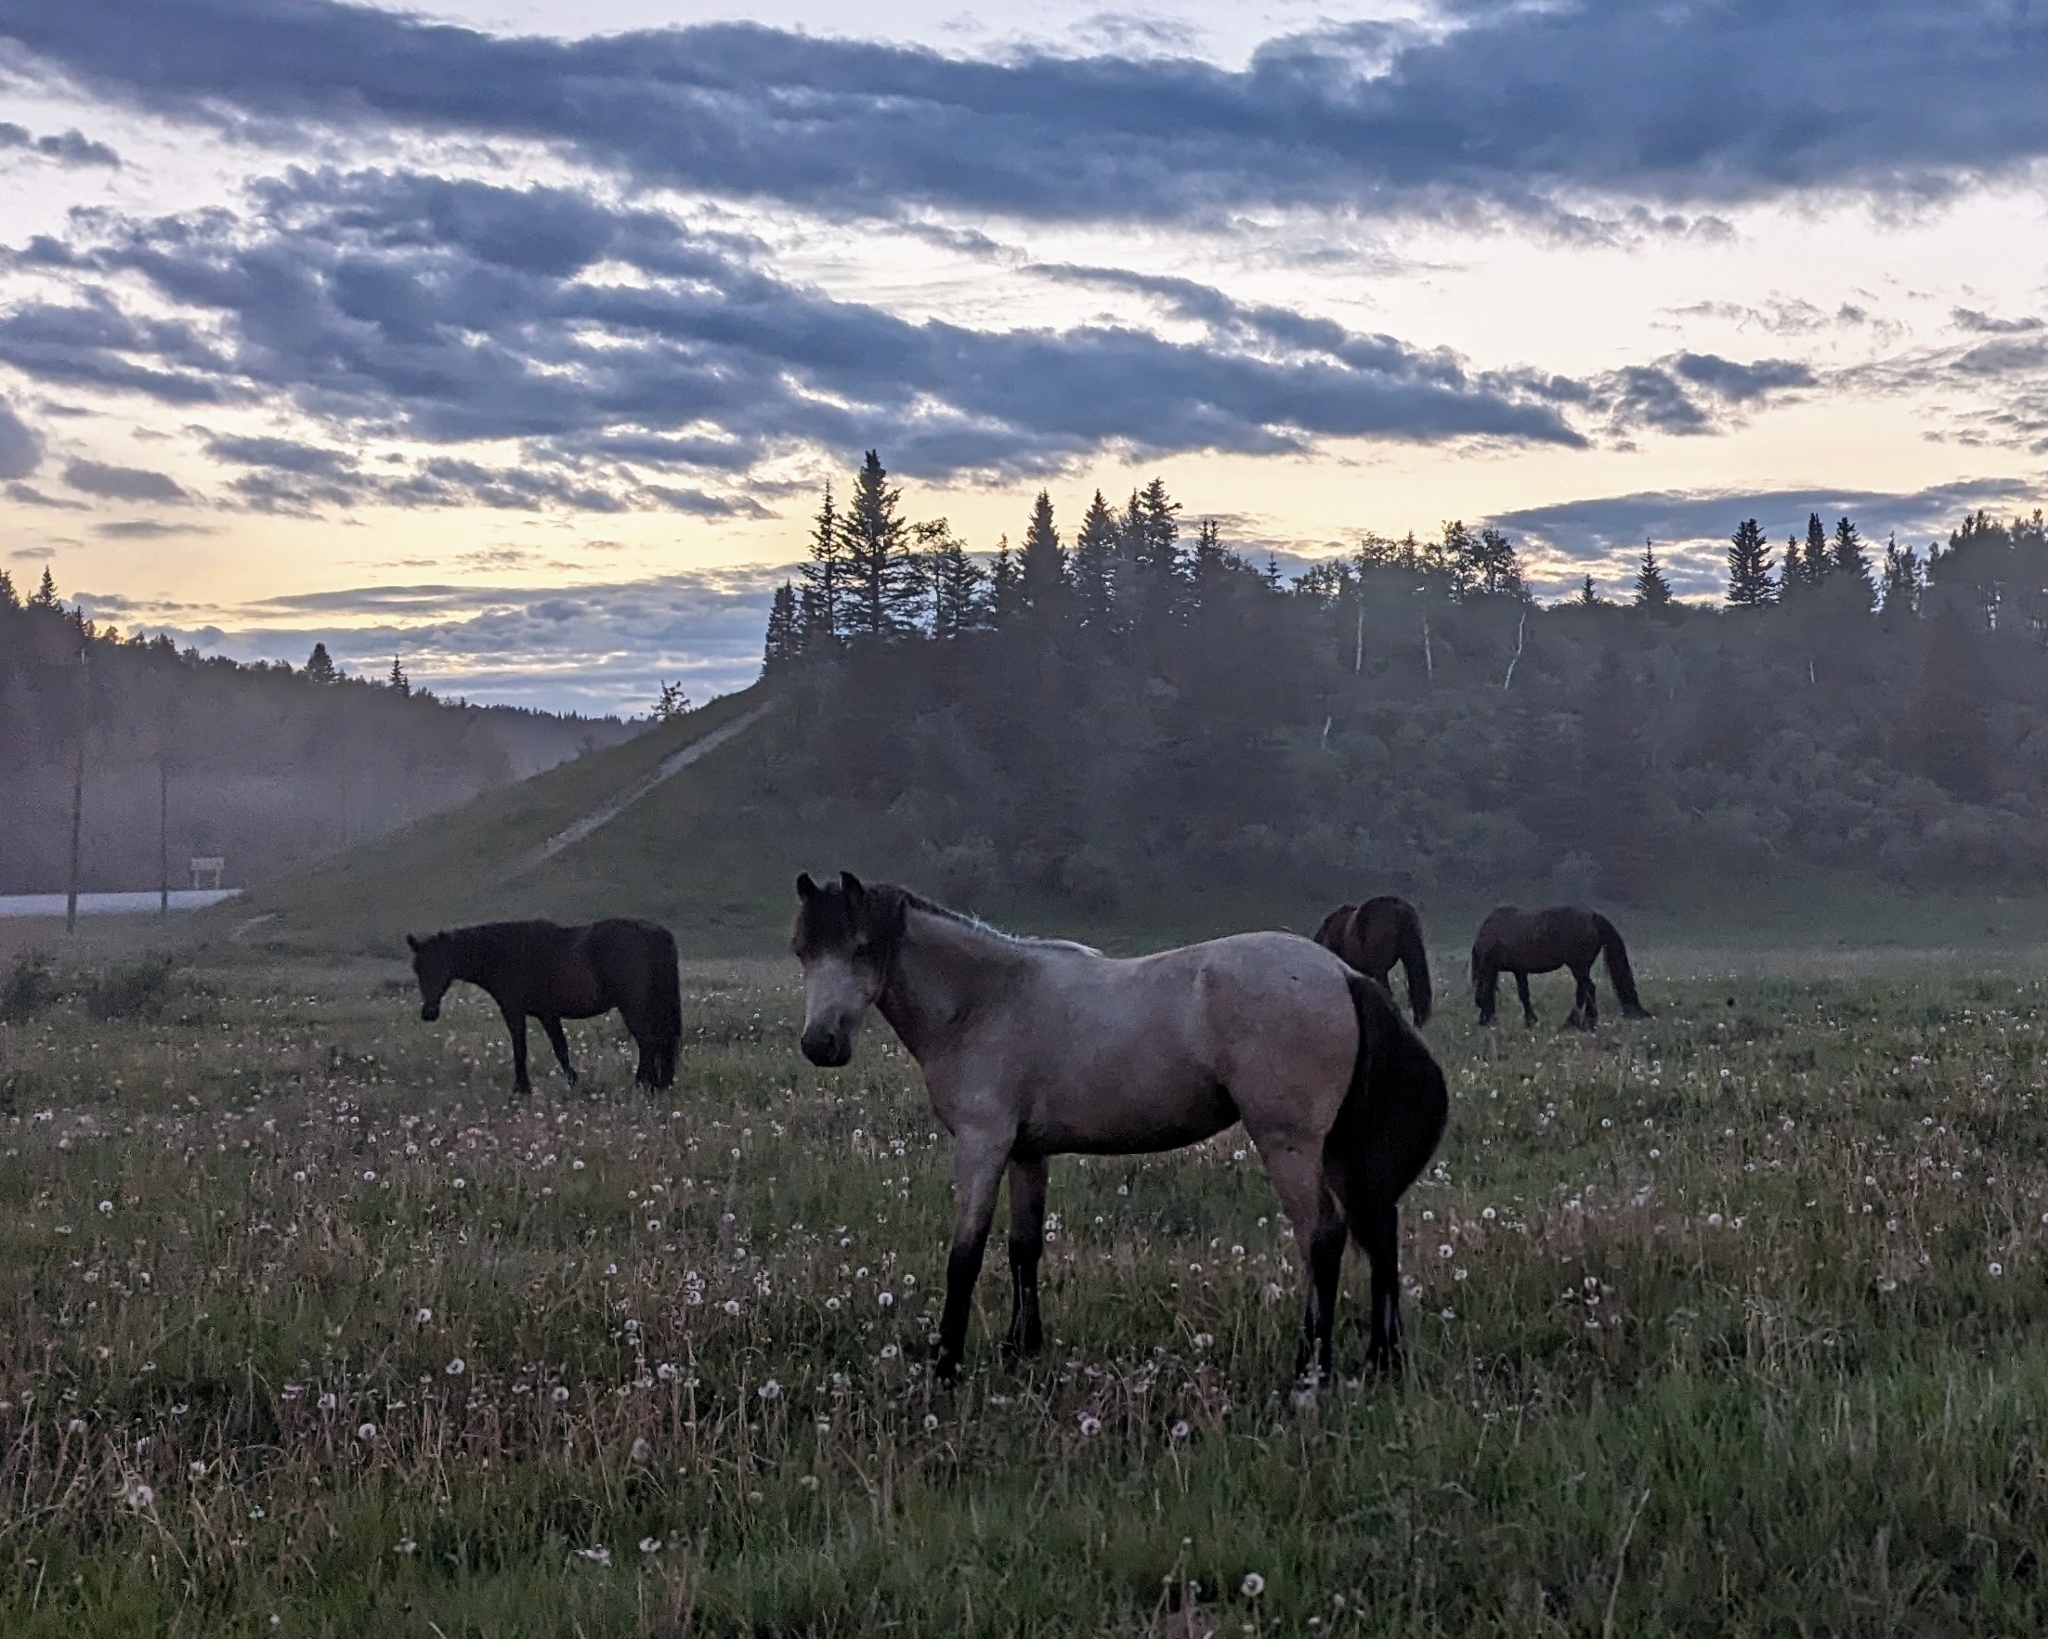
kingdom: Animalia
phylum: Chordata
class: Mammalia
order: Perissodactyla
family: Equidae
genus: Equus
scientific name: Equus caballus
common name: Horse
